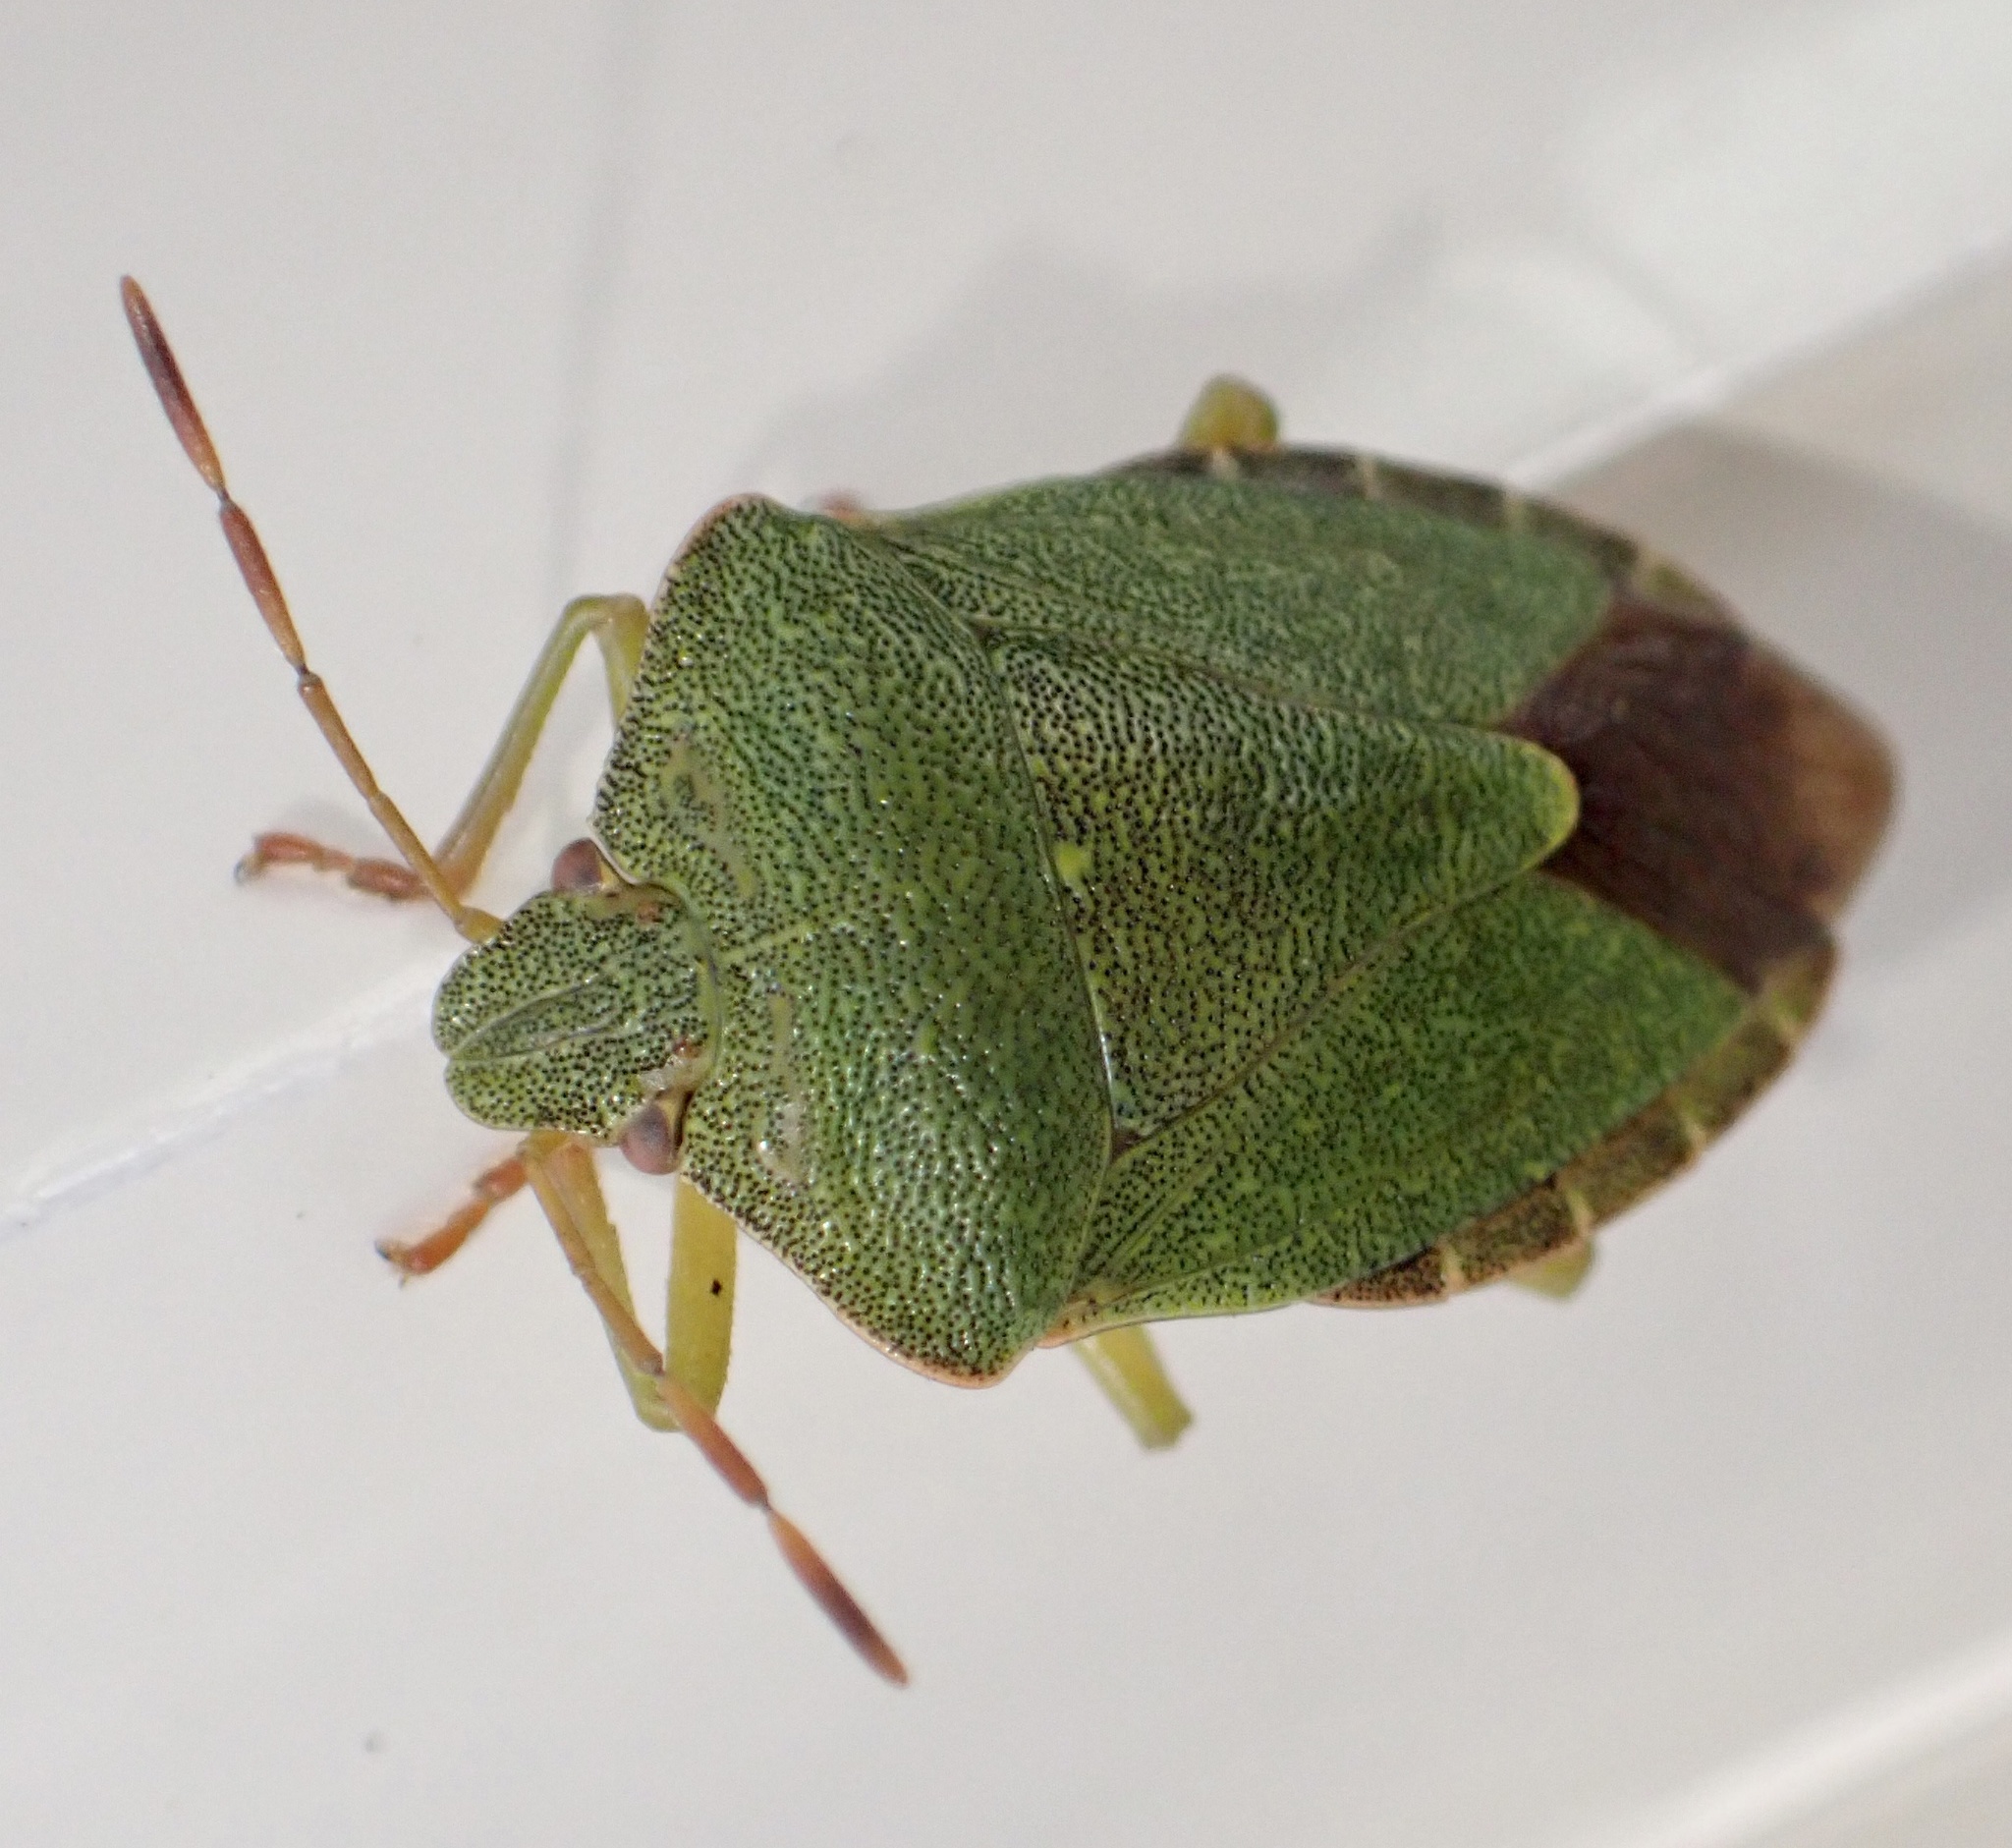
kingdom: Animalia
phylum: Arthropoda
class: Insecta
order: Hemiptera
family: Pentatomidae
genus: Palomena
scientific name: Palomena prasina
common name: Green shieldbug
